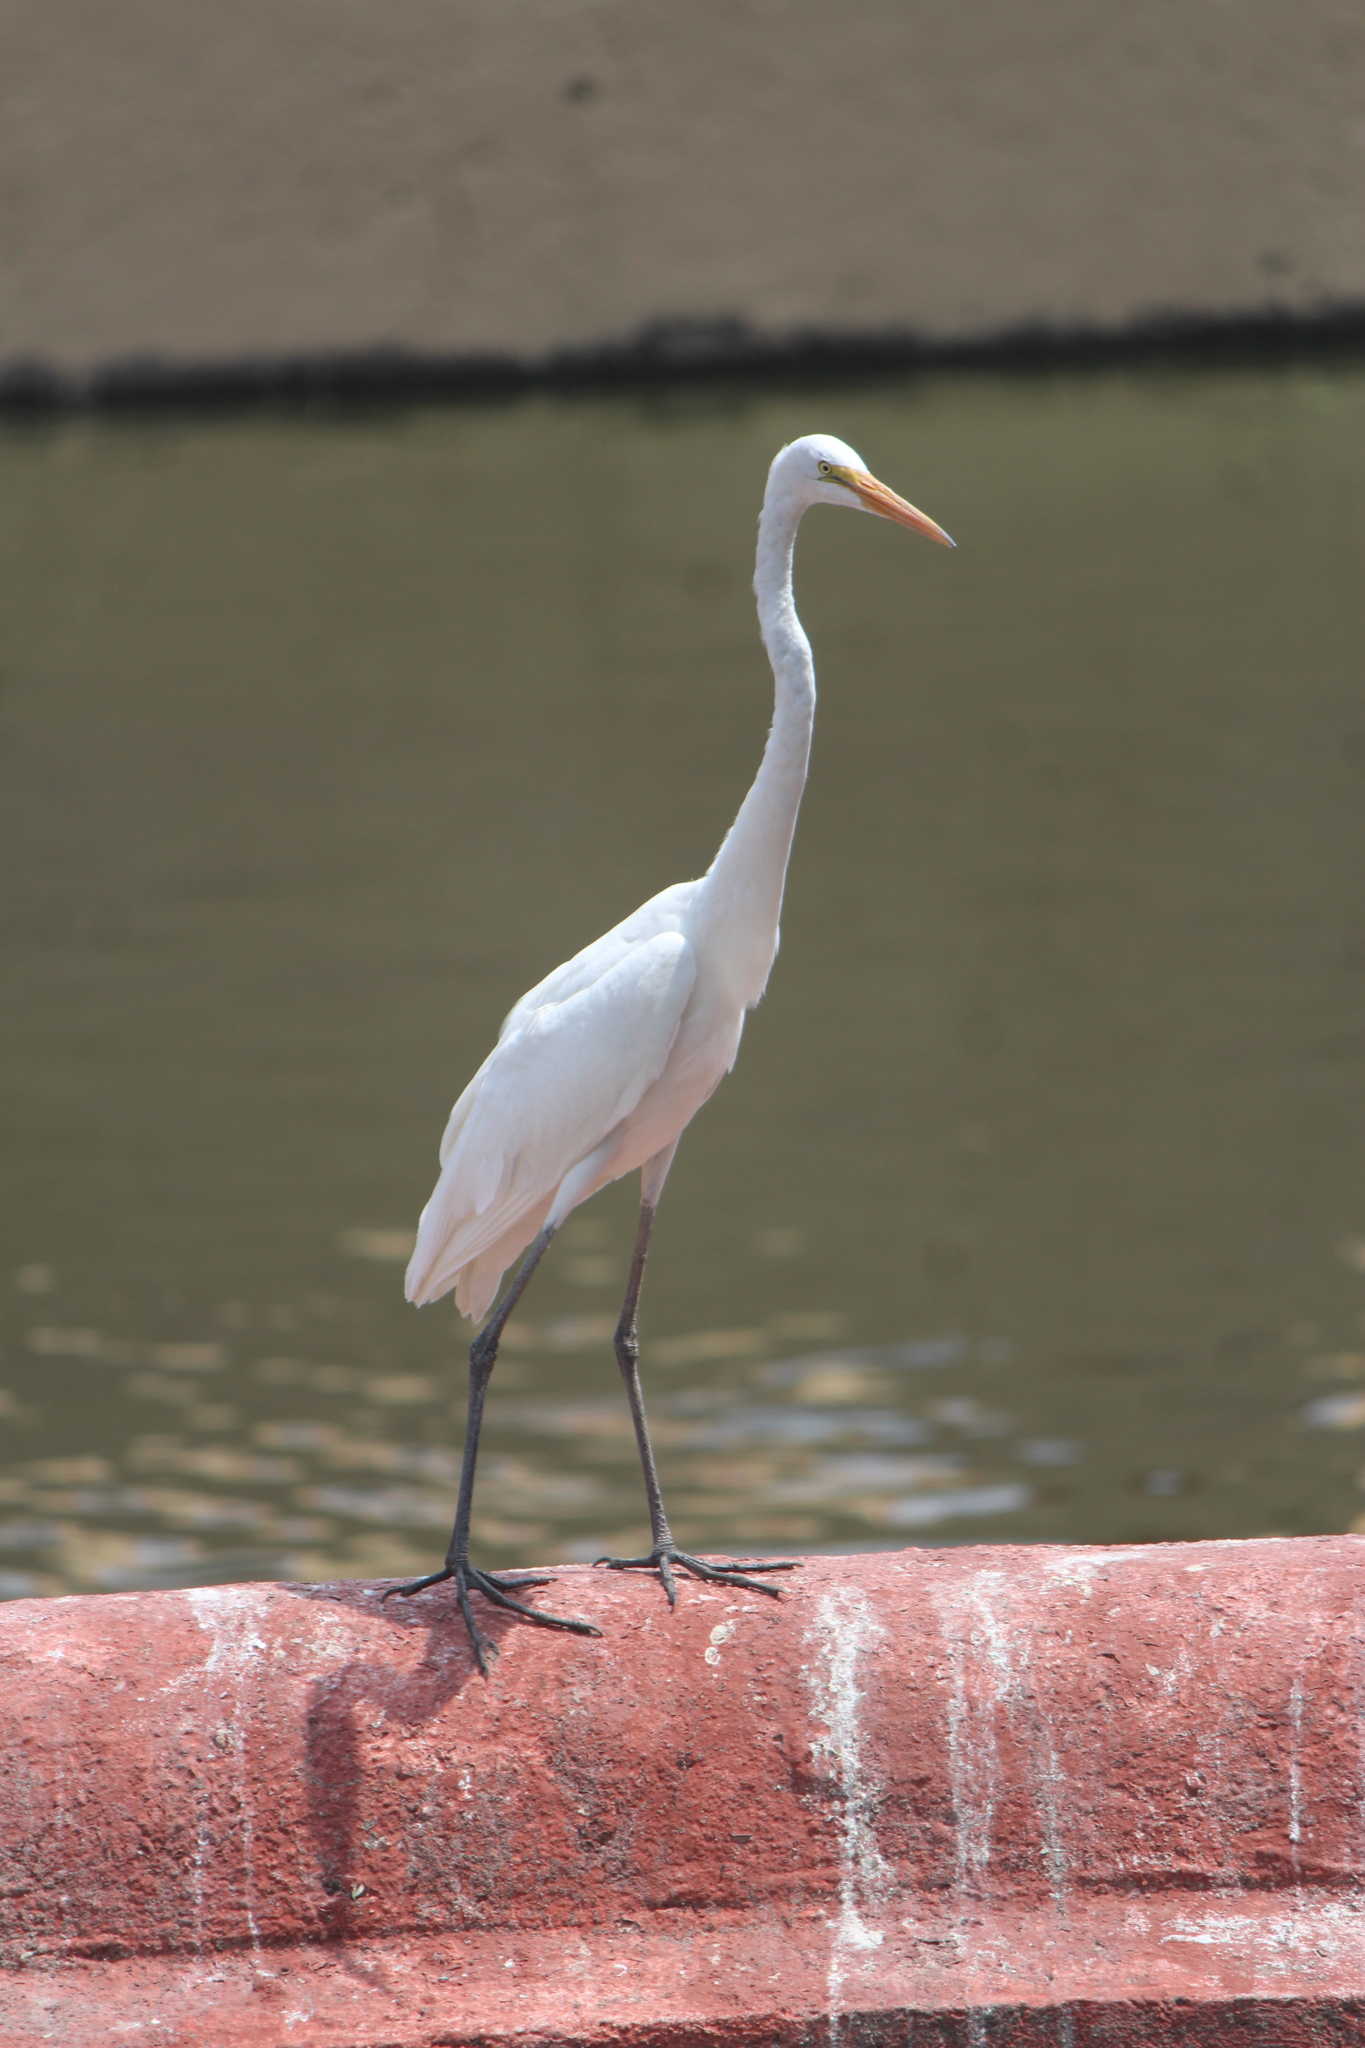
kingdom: Animalia
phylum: Chordata
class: Aves
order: Pelecaniformes
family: Ardeidae
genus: Ardea
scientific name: Ardea alba
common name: Great egret
